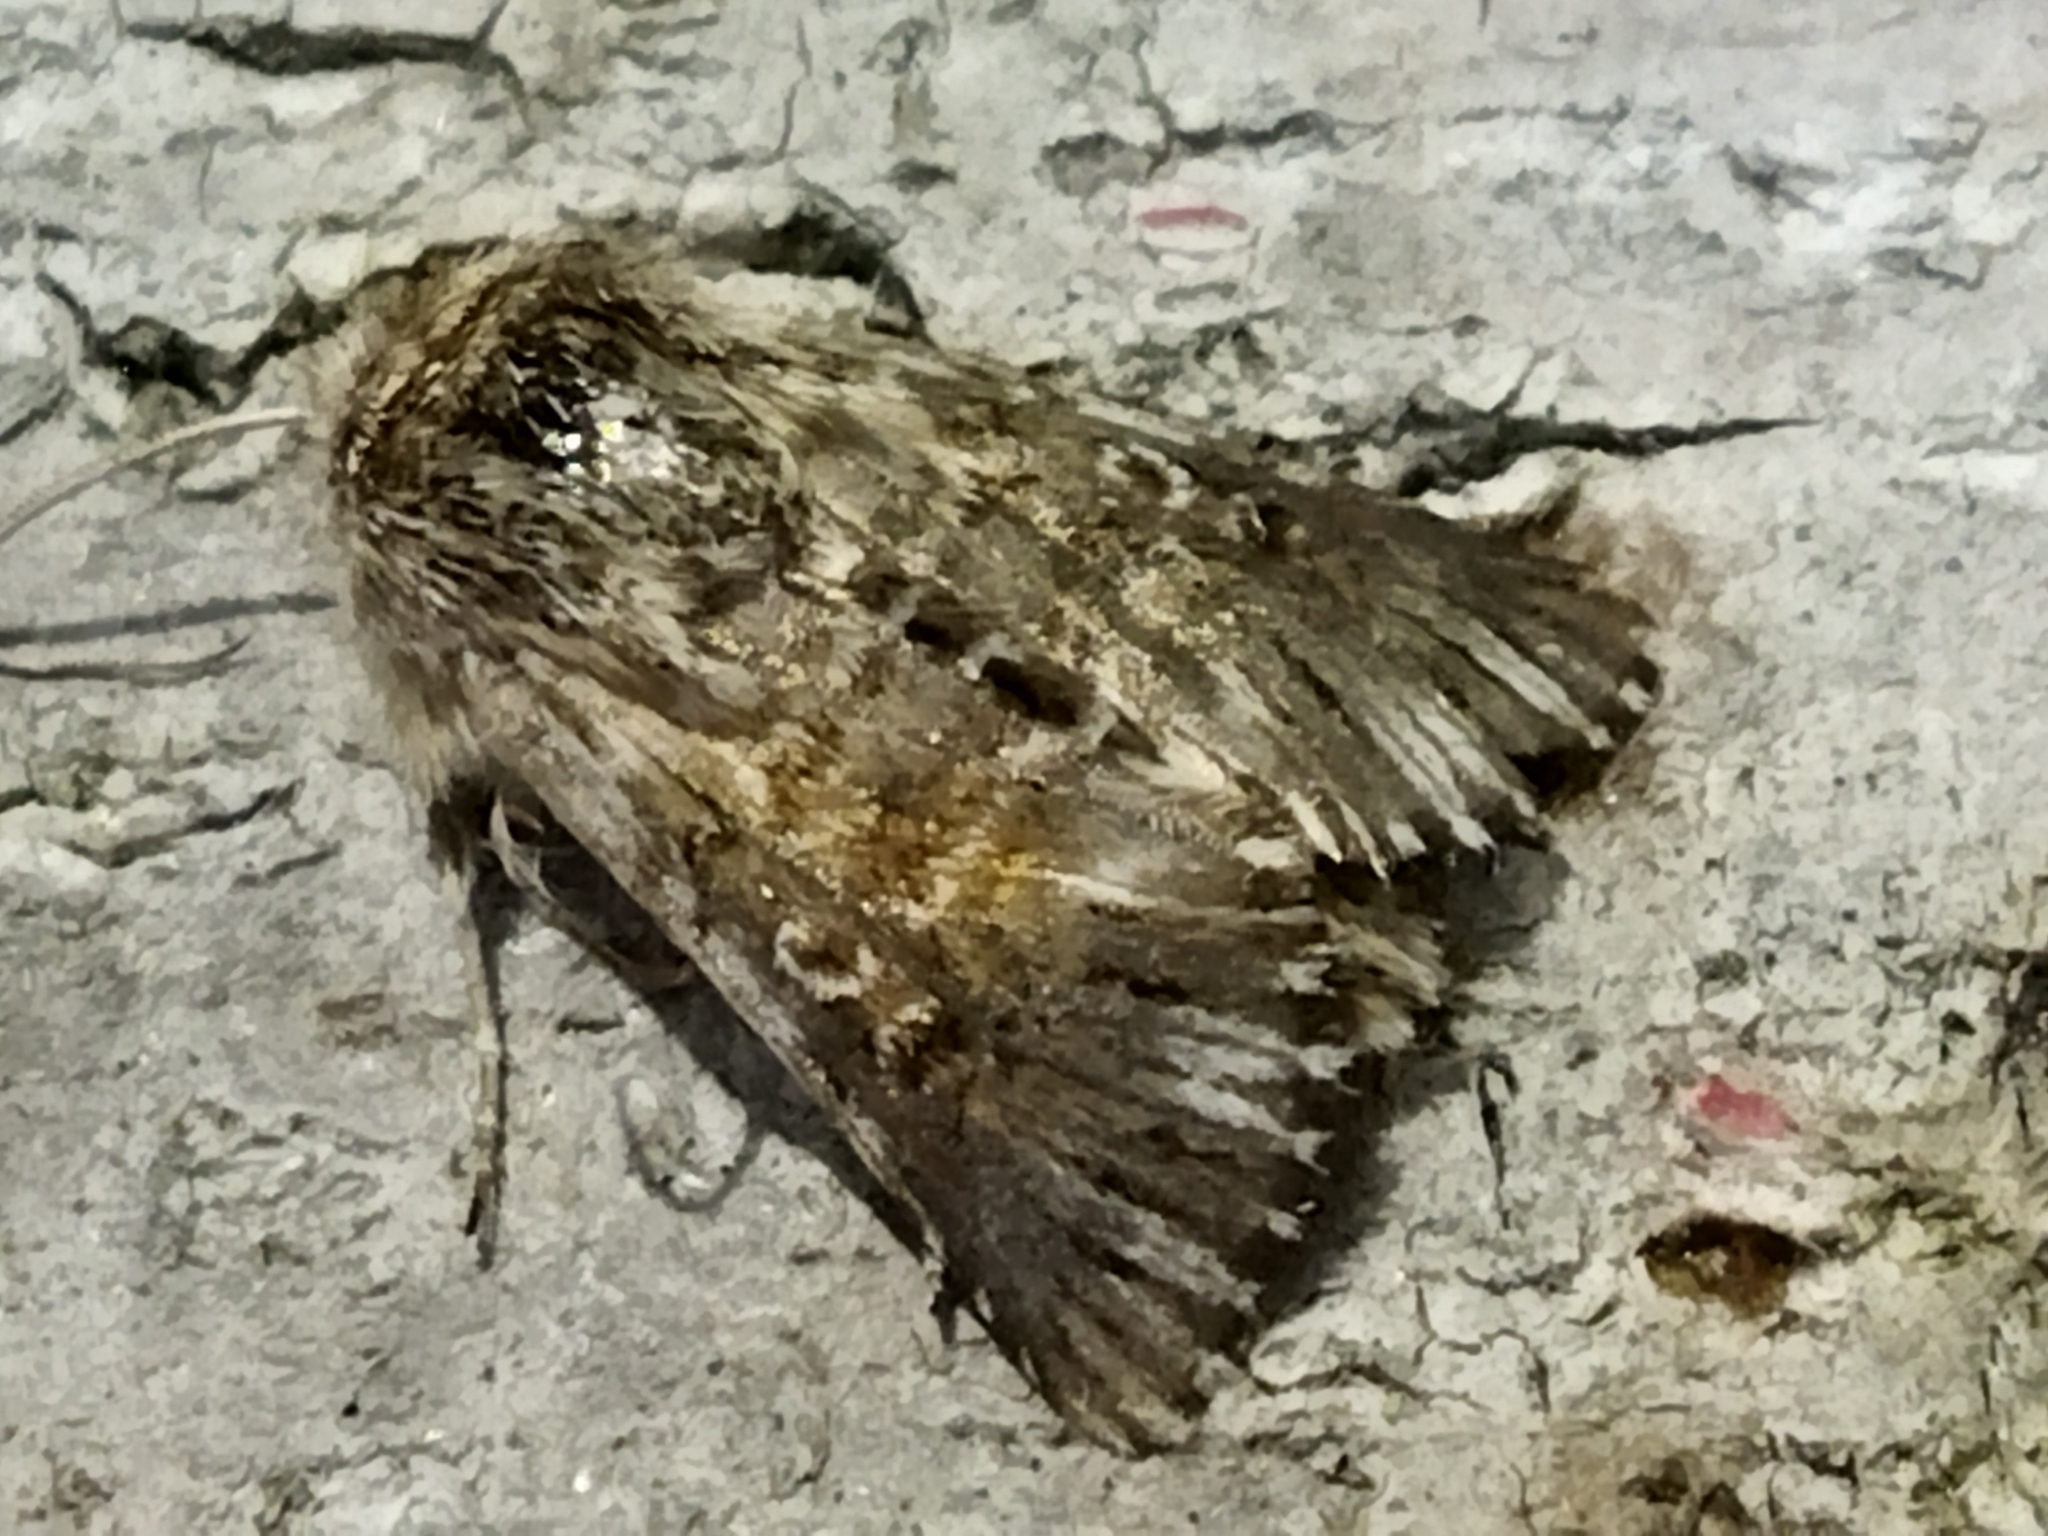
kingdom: Animalia
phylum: Arthropoda
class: Insecta
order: Lepidoptera
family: Noctuidae
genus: Omphalophana
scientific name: Omphalophana antirrhinii
